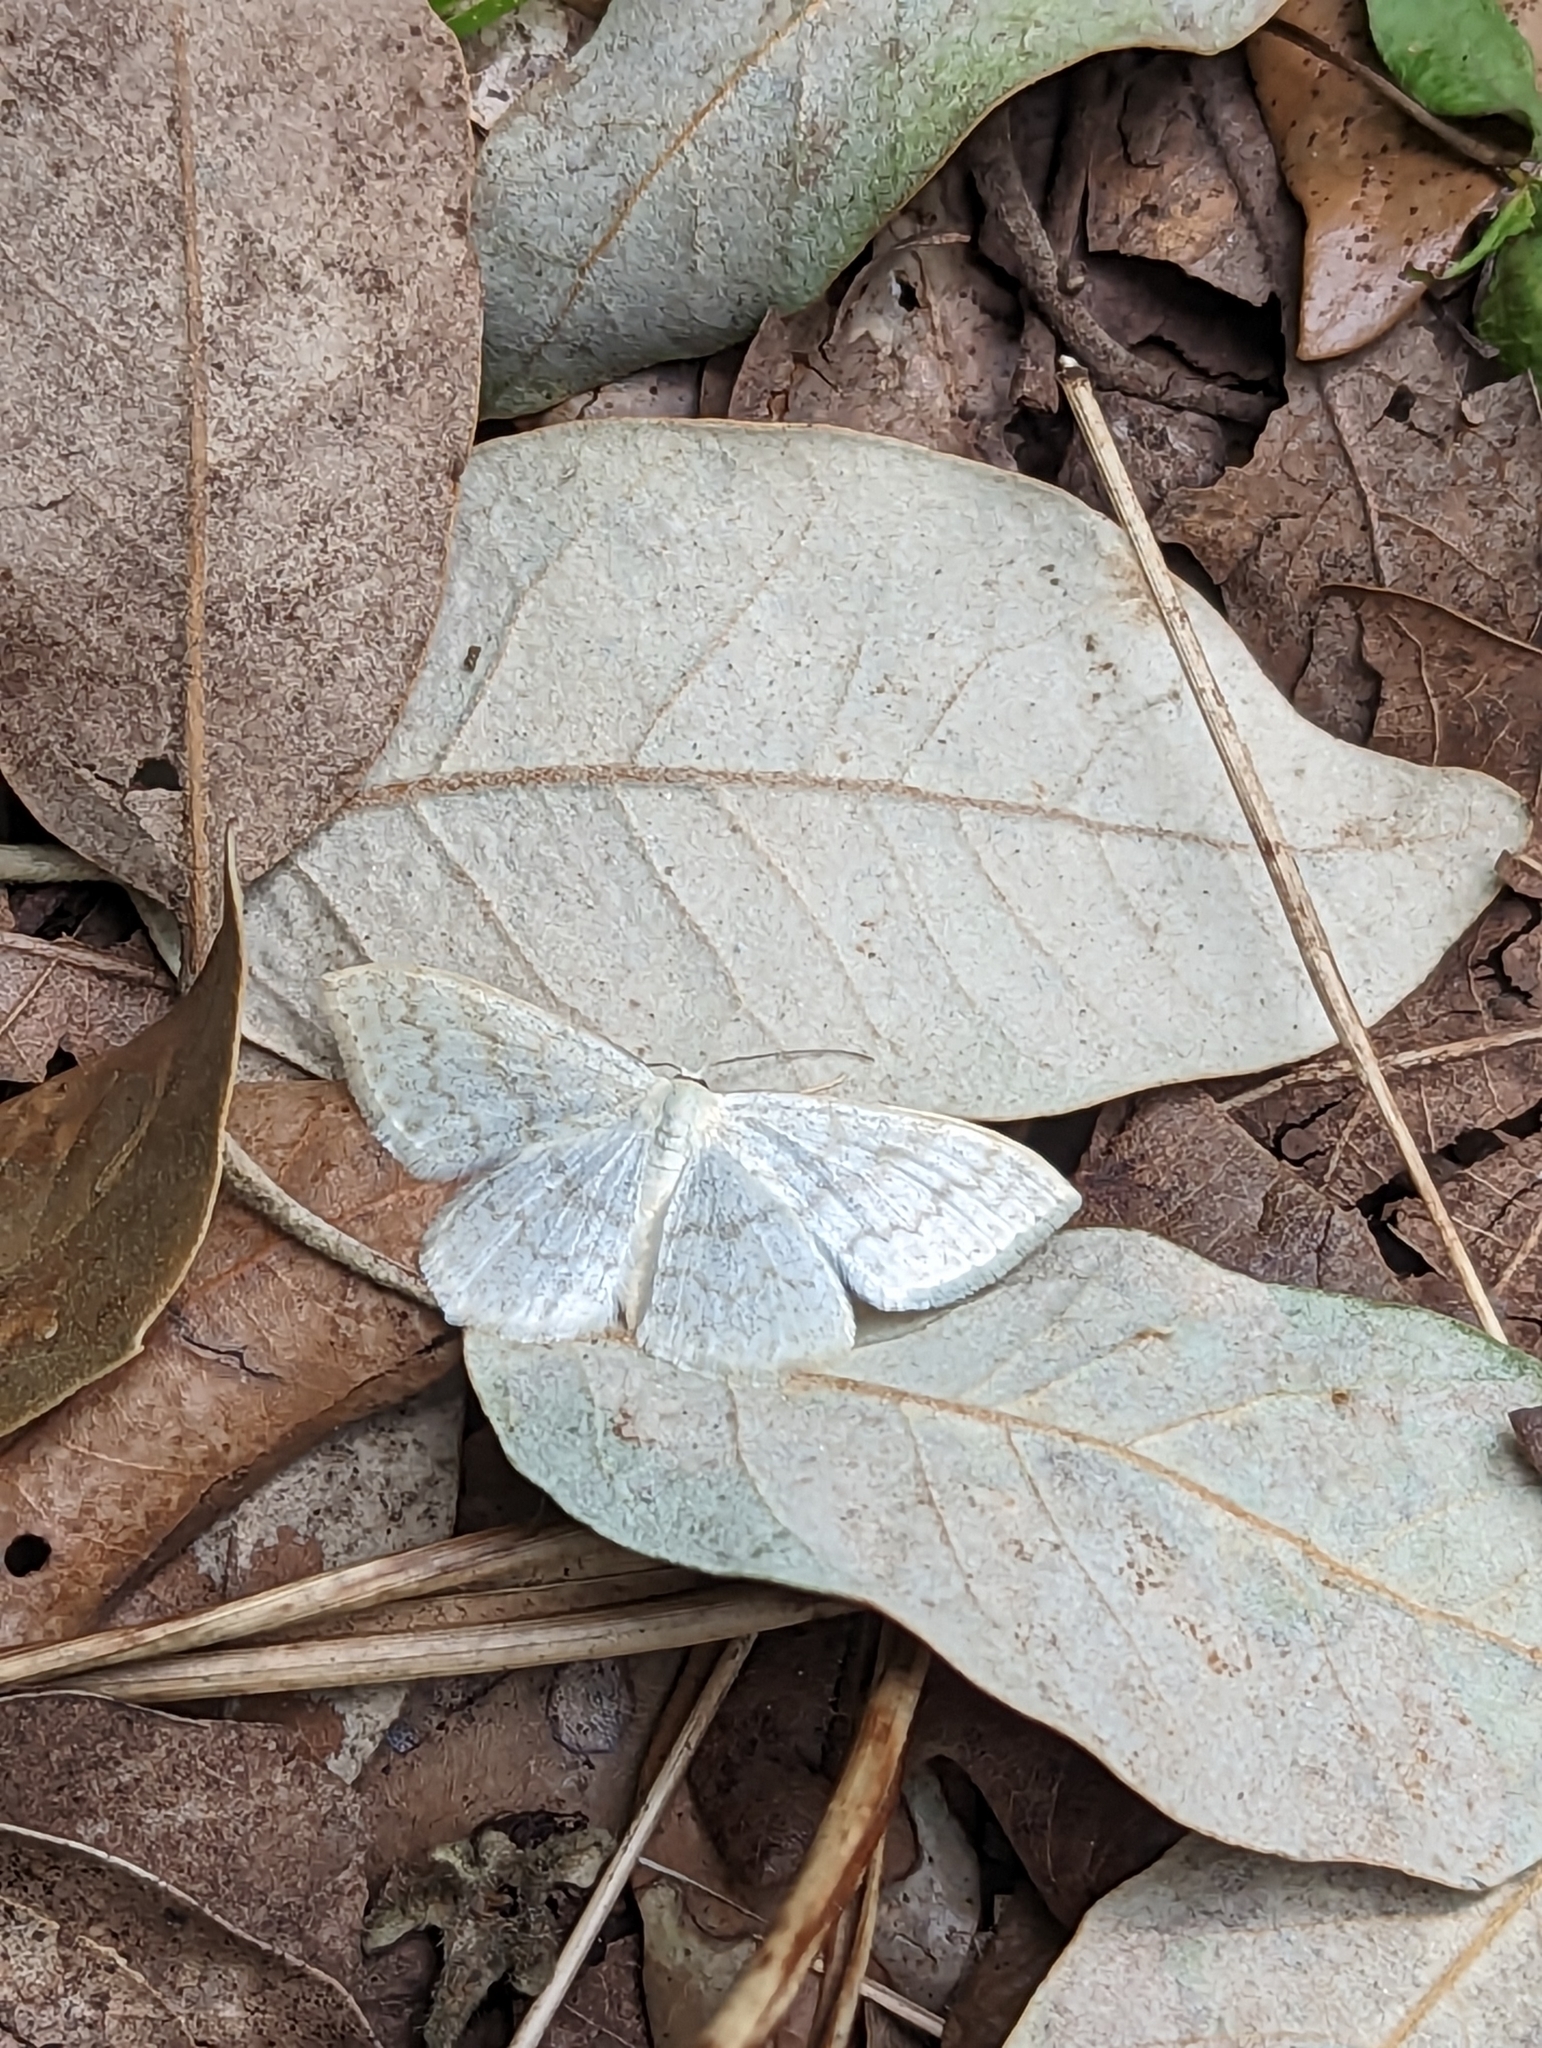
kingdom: Animalia
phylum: Arthropoda
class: Insecta
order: Lepidoptera
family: Geometridae
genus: Scopula
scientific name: Scopula floslactata
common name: Cream wave
